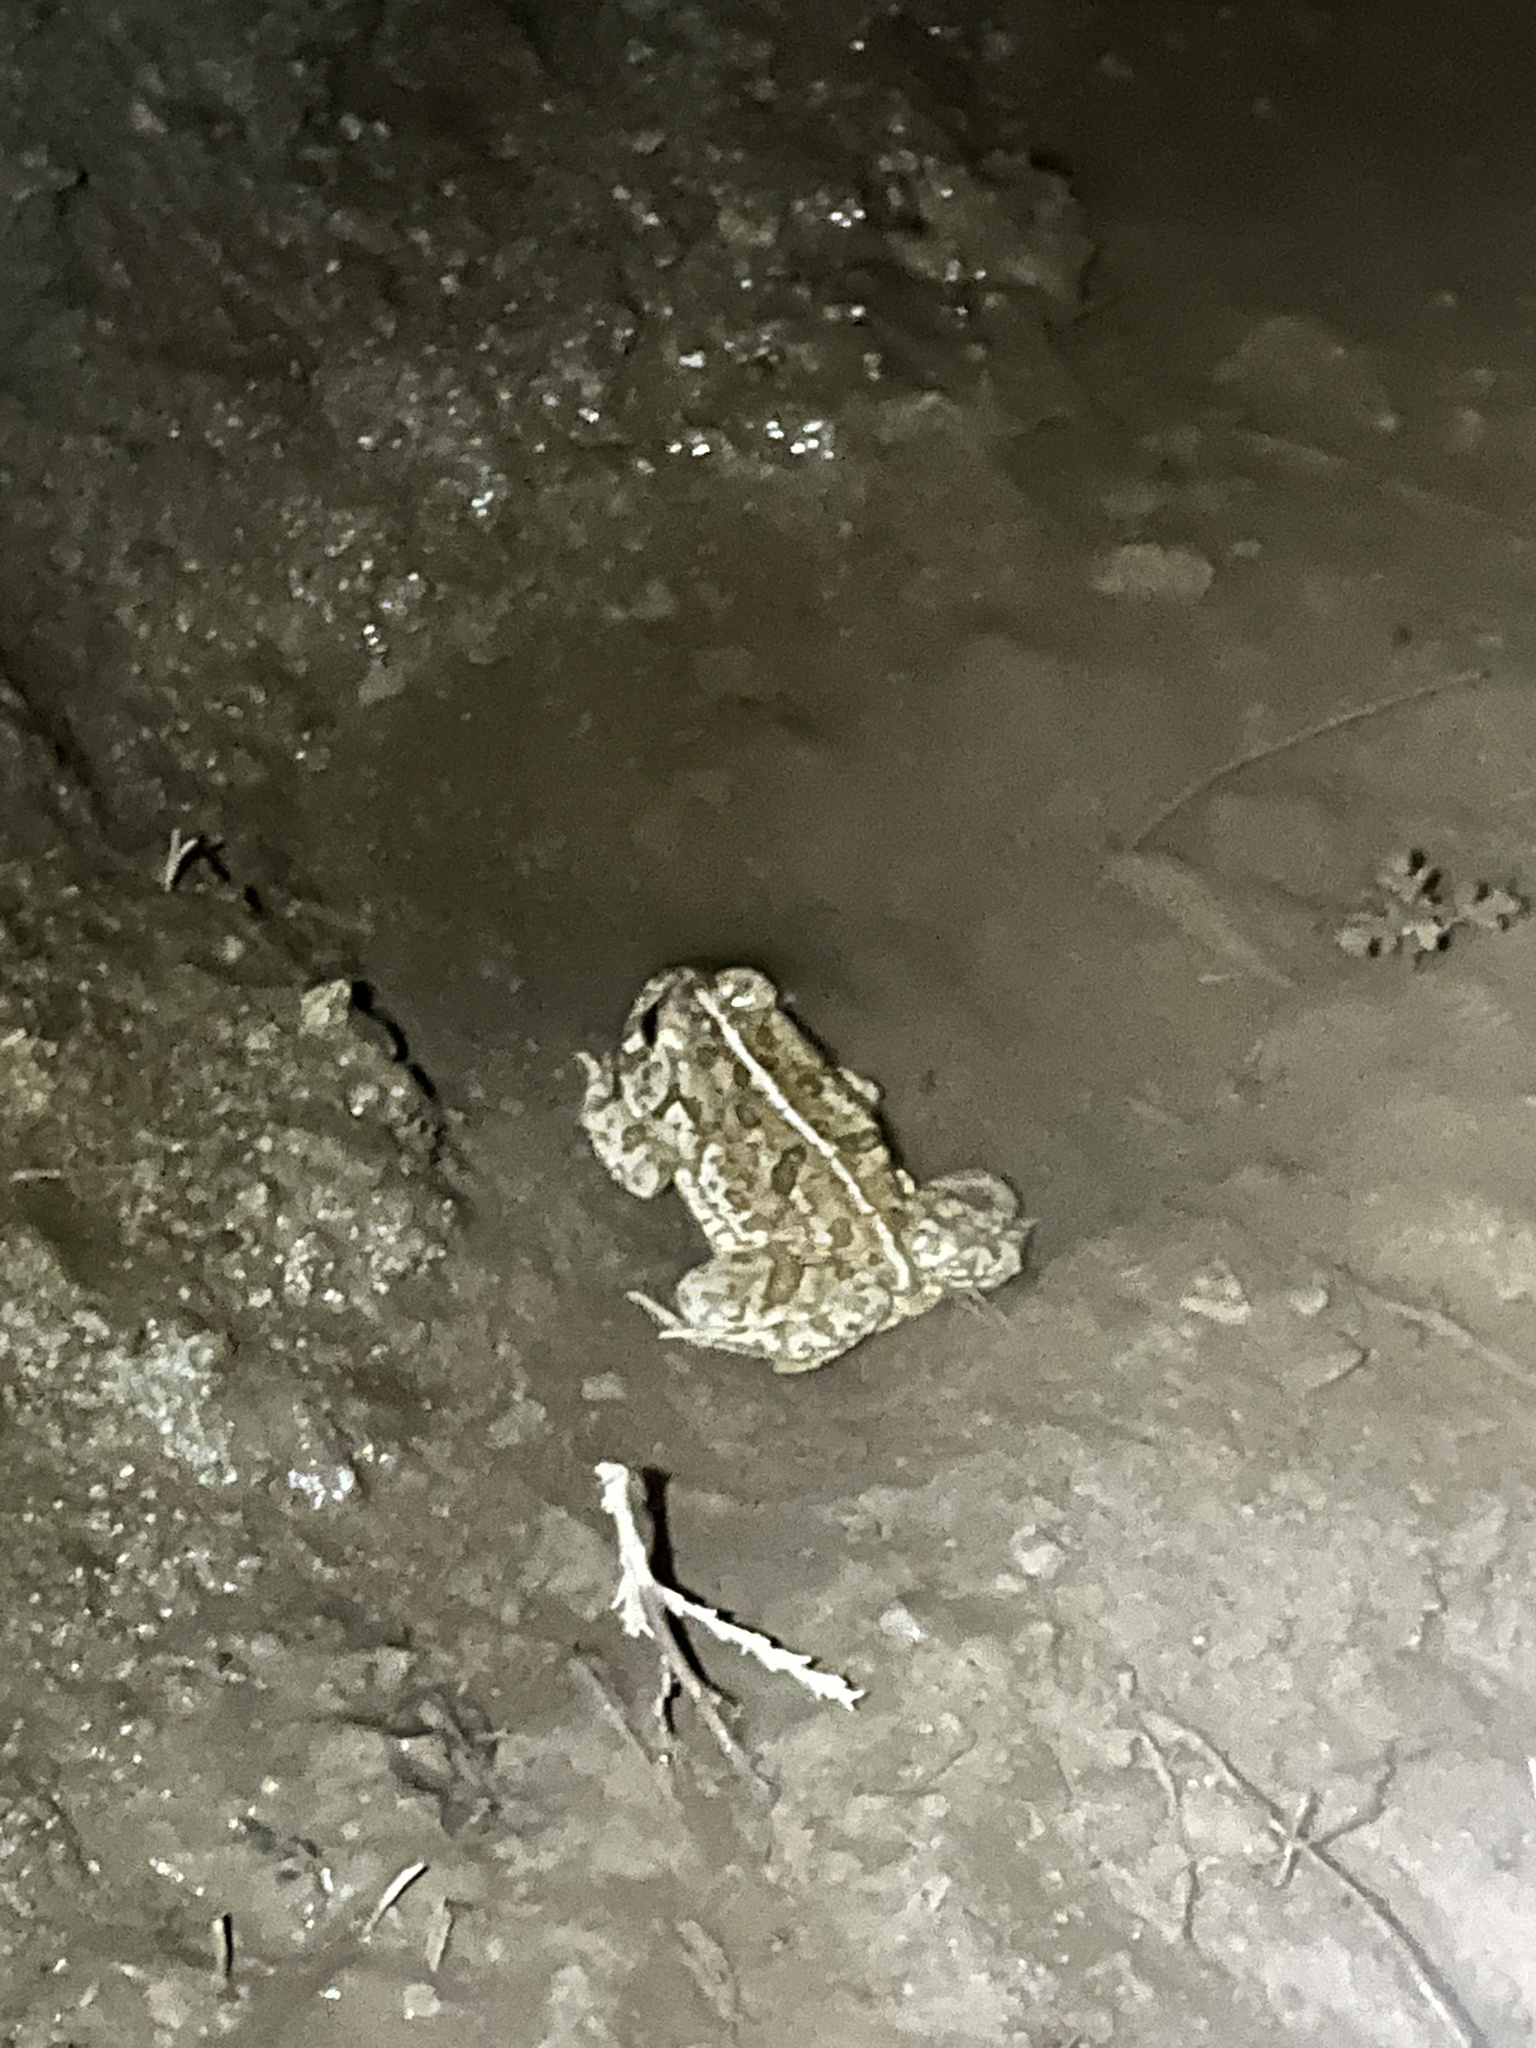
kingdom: Animalia
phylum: Chordata
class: Amphibia
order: Anura
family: Bufonidae
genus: Anaxyrus
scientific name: Anaxyrus woodhousii
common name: Woodhouse's toad
